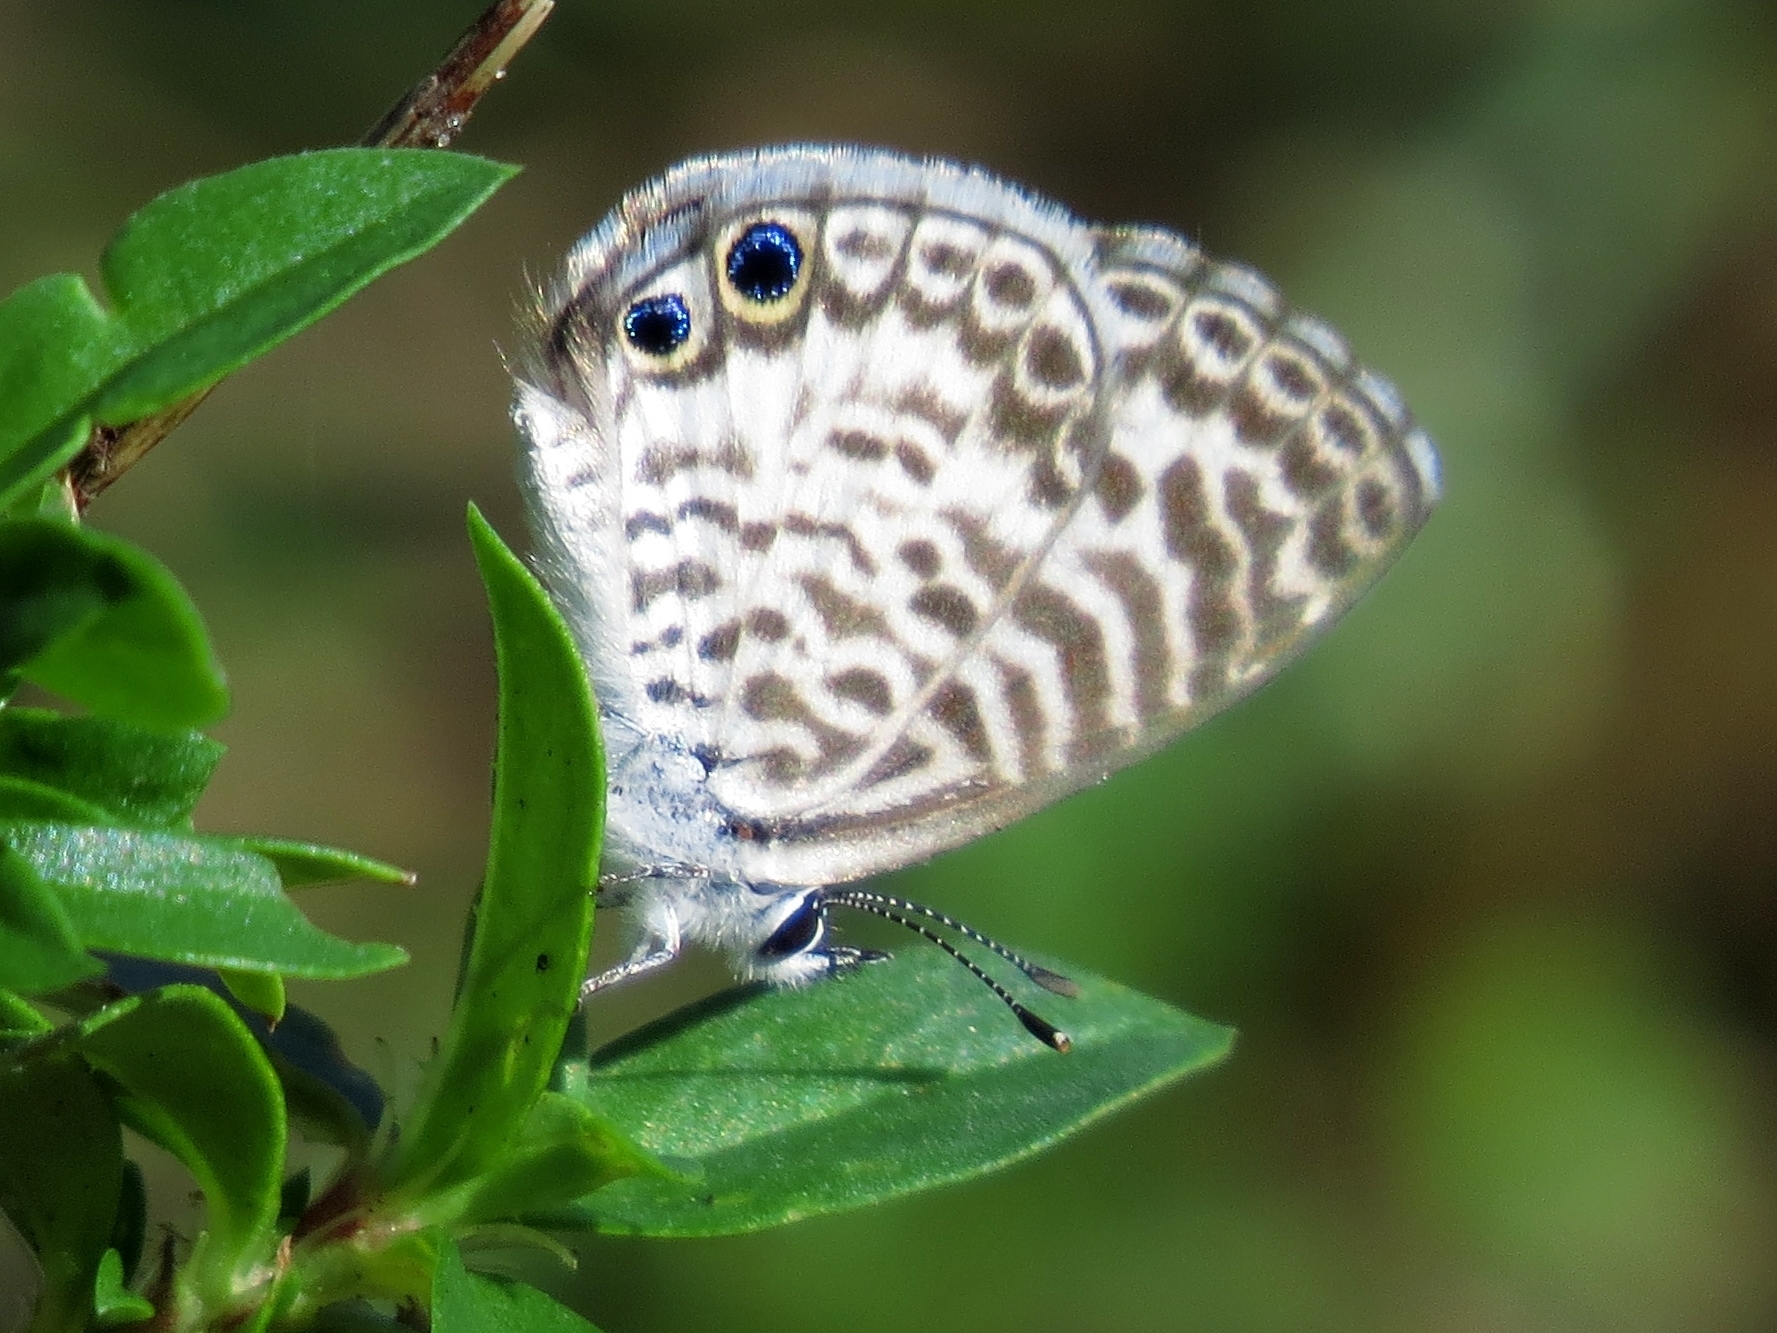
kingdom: Animalia
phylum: Arthropoda
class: Insecta
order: Lepidoptera
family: Lycaenidae
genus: Leptotes
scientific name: Leptotes cassius
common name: Cassius blue
